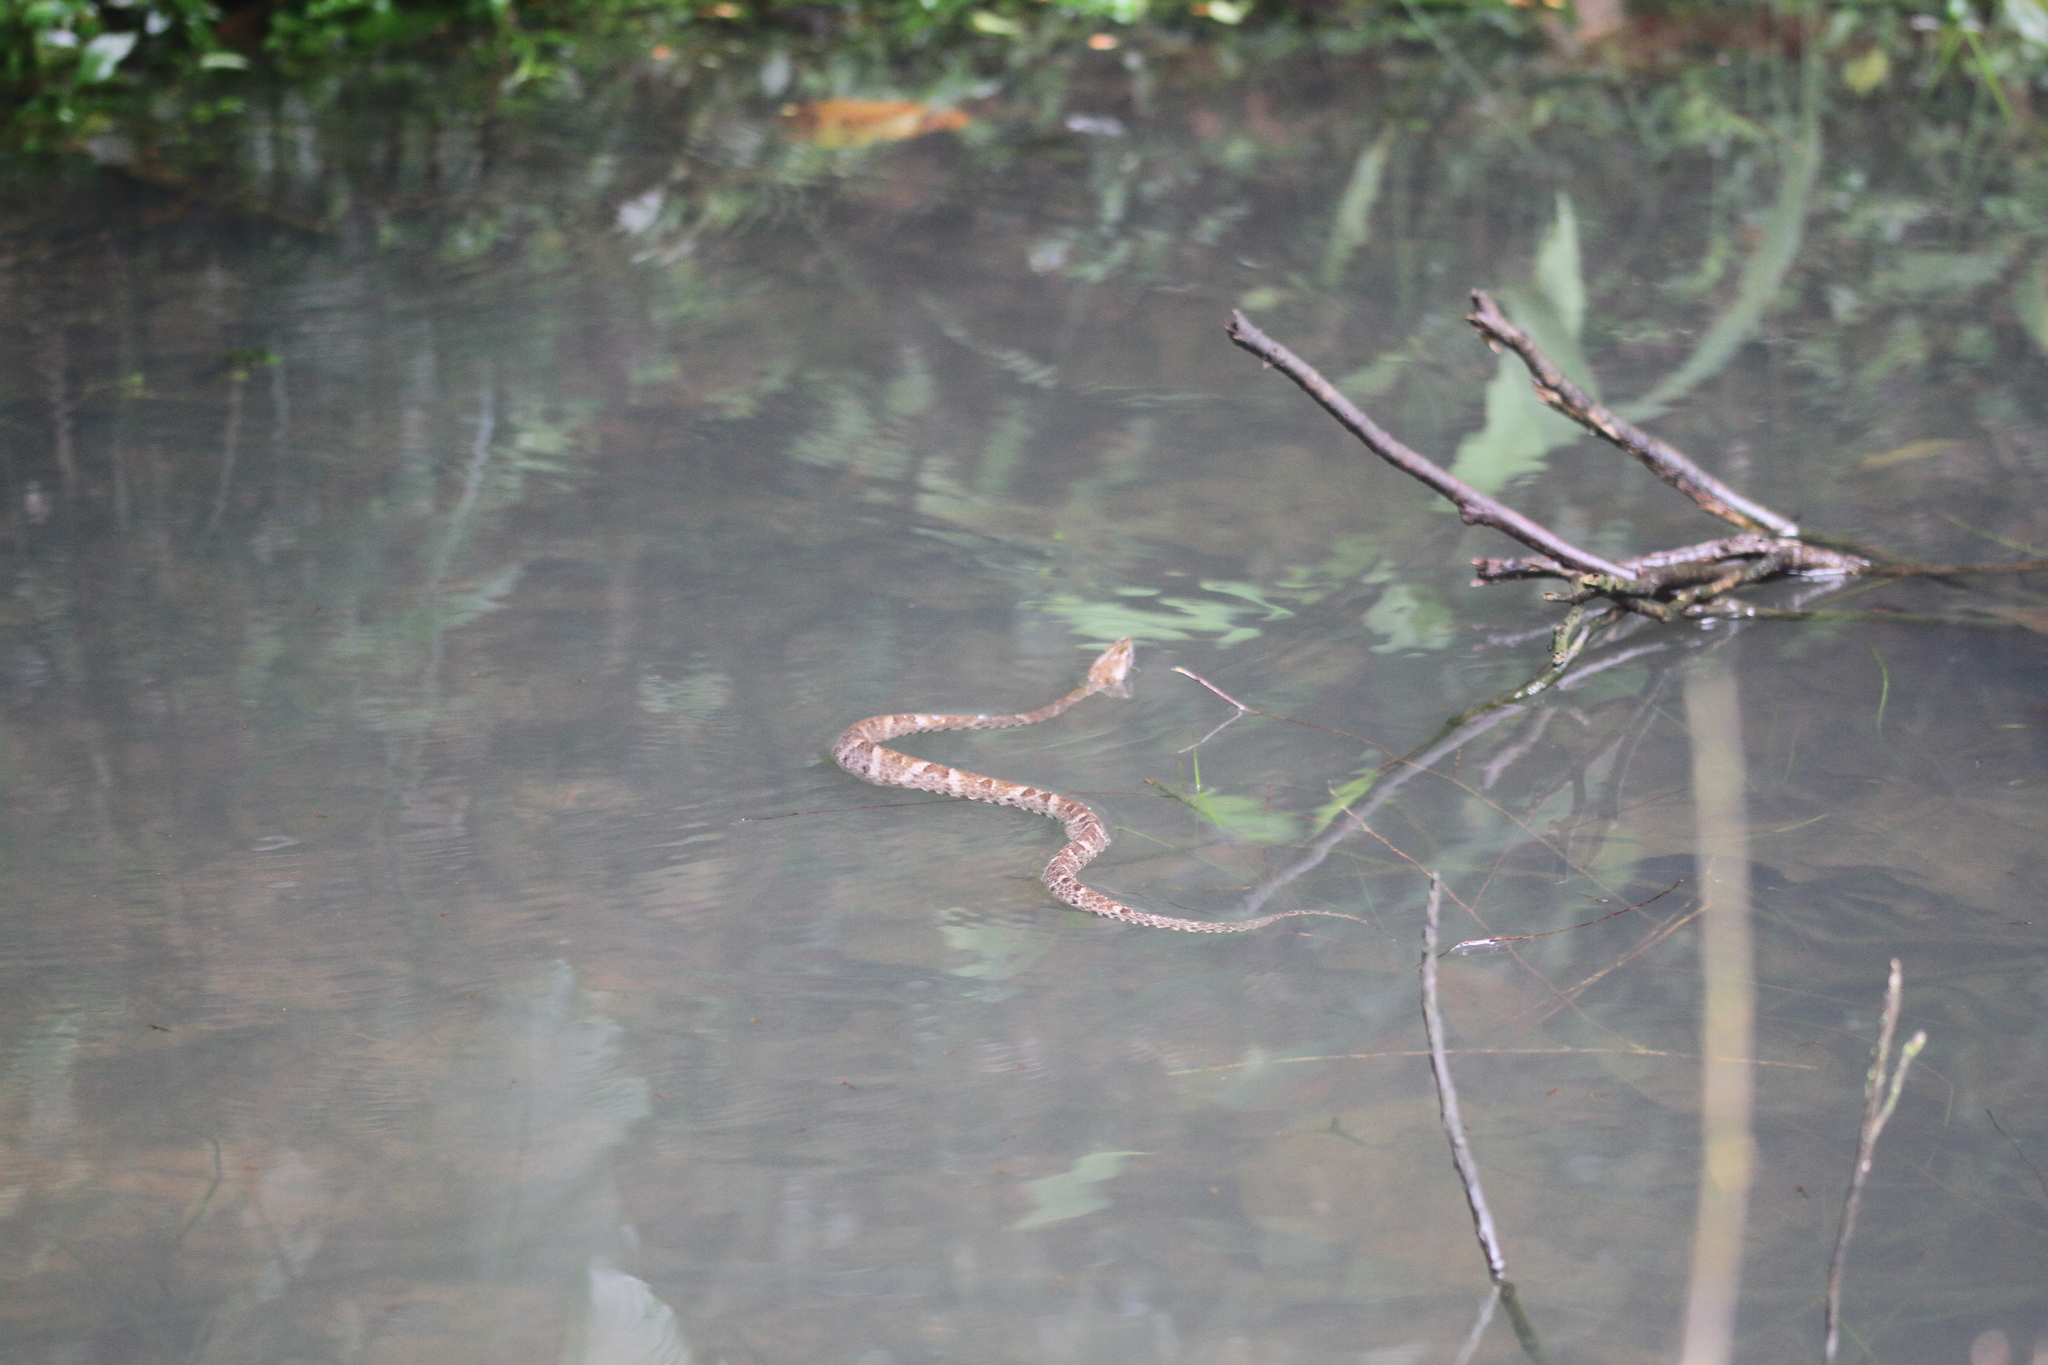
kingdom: Animalia
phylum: Chordata
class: Squamata
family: Viperidae
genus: Bothrops
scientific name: Bothrops atrox
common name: Common lancehead
